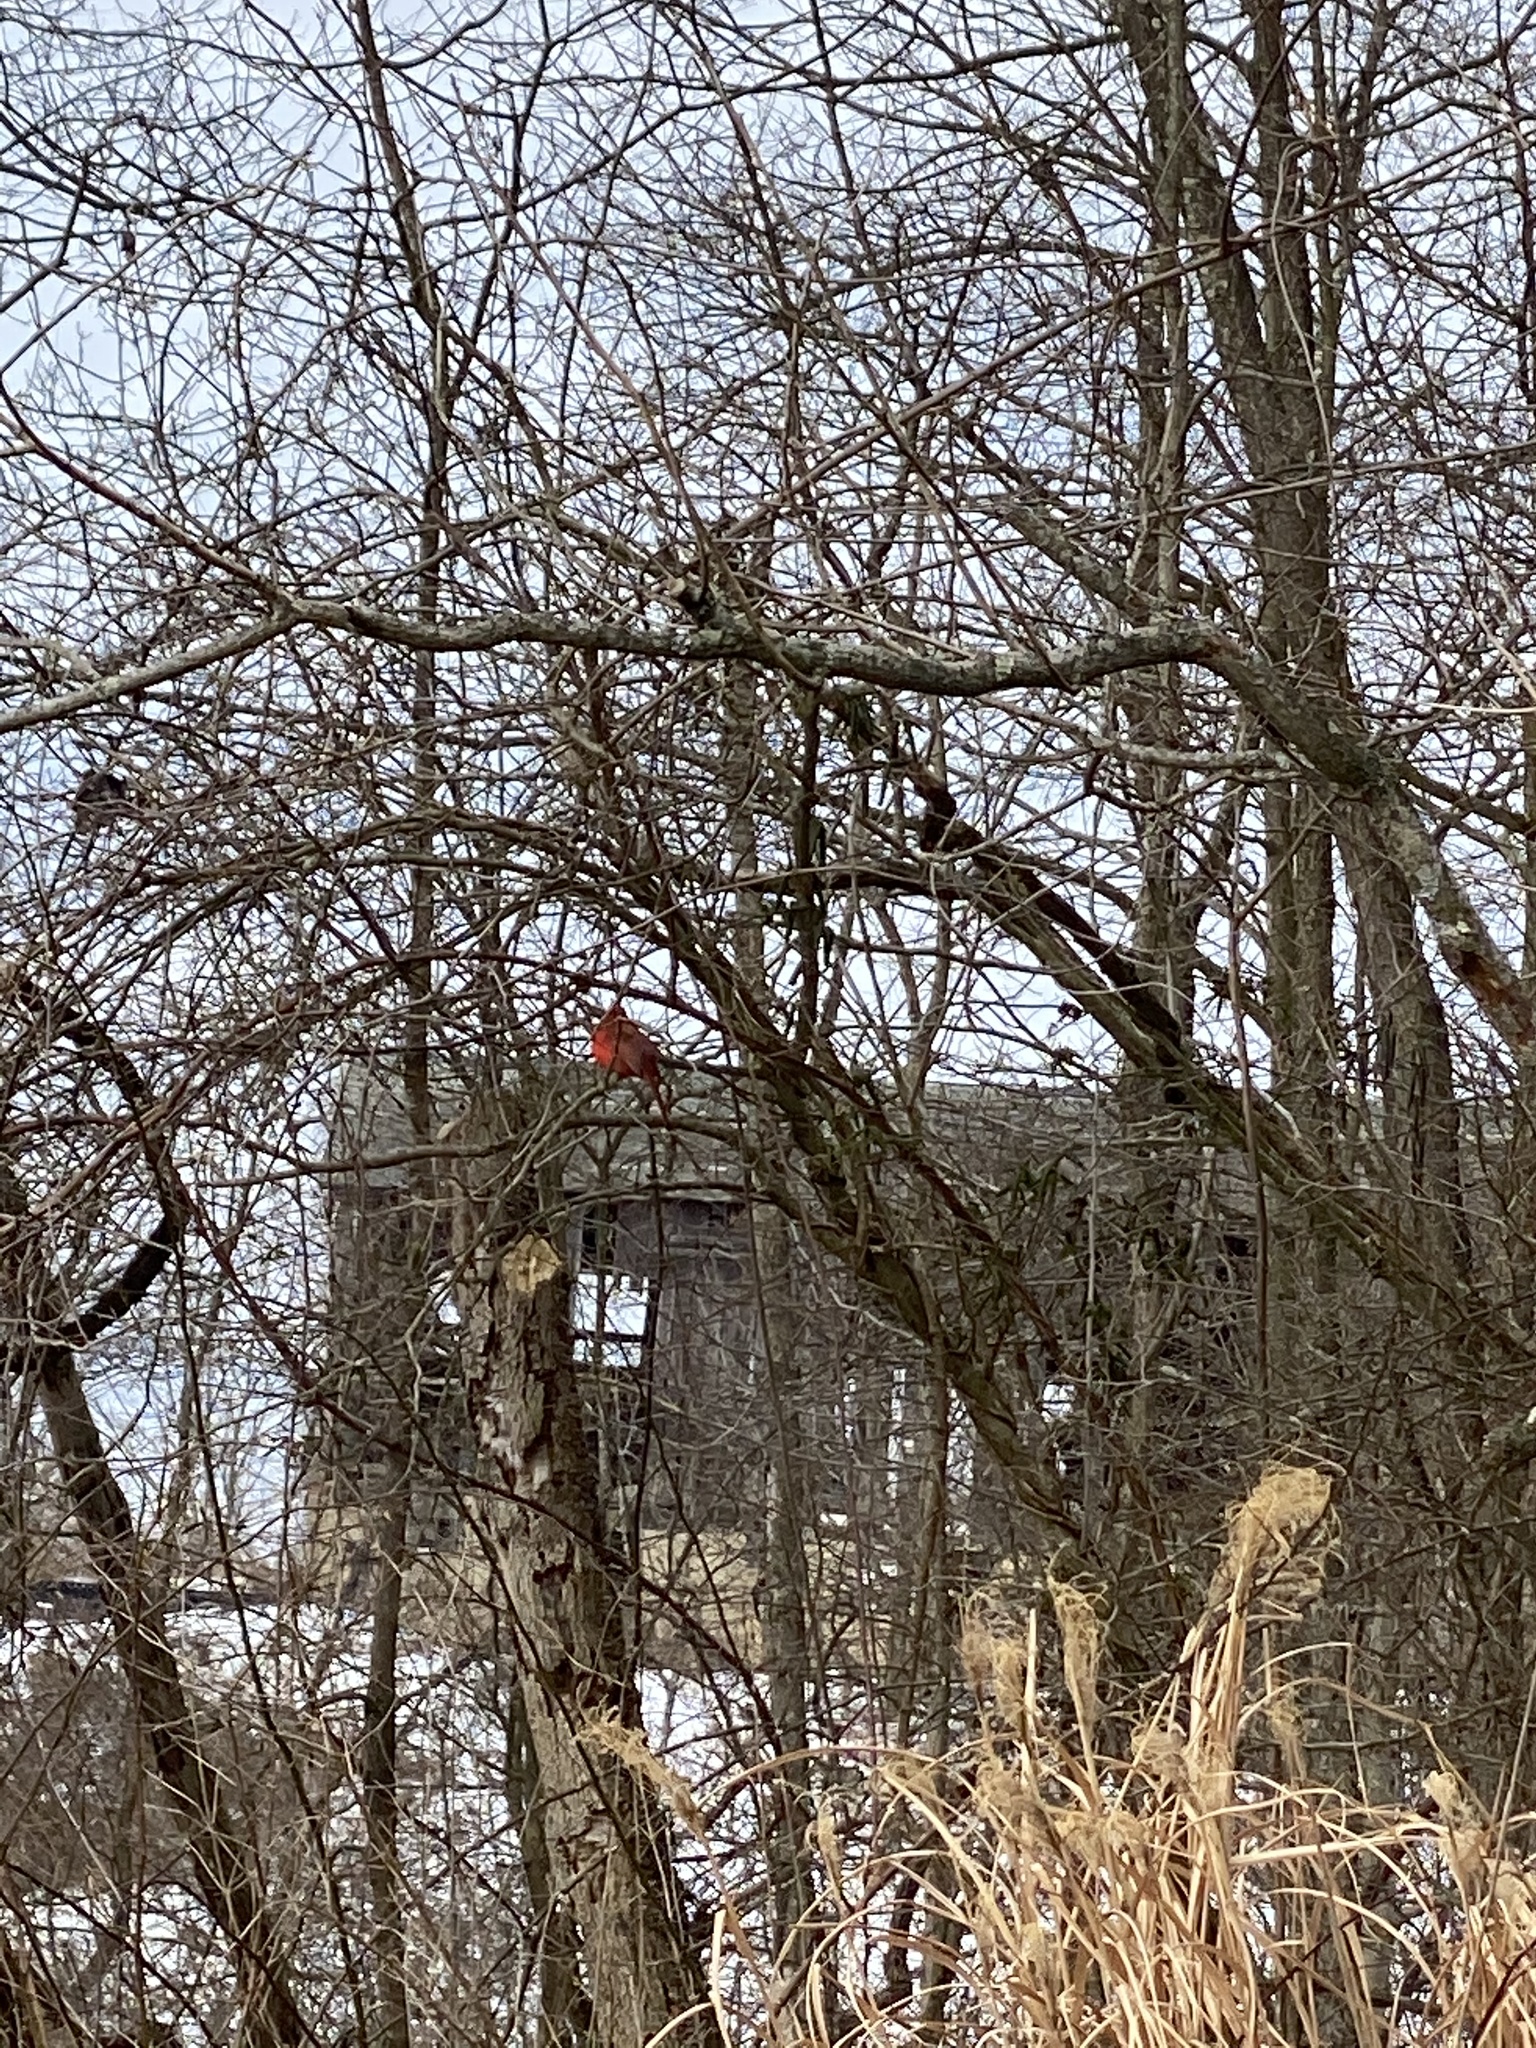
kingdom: Animalia
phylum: Chordata
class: Aves
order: Passeriformes
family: Cardinalidae
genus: Cardinalis
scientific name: Cardinalis cardinalis
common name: Northern cardinal
